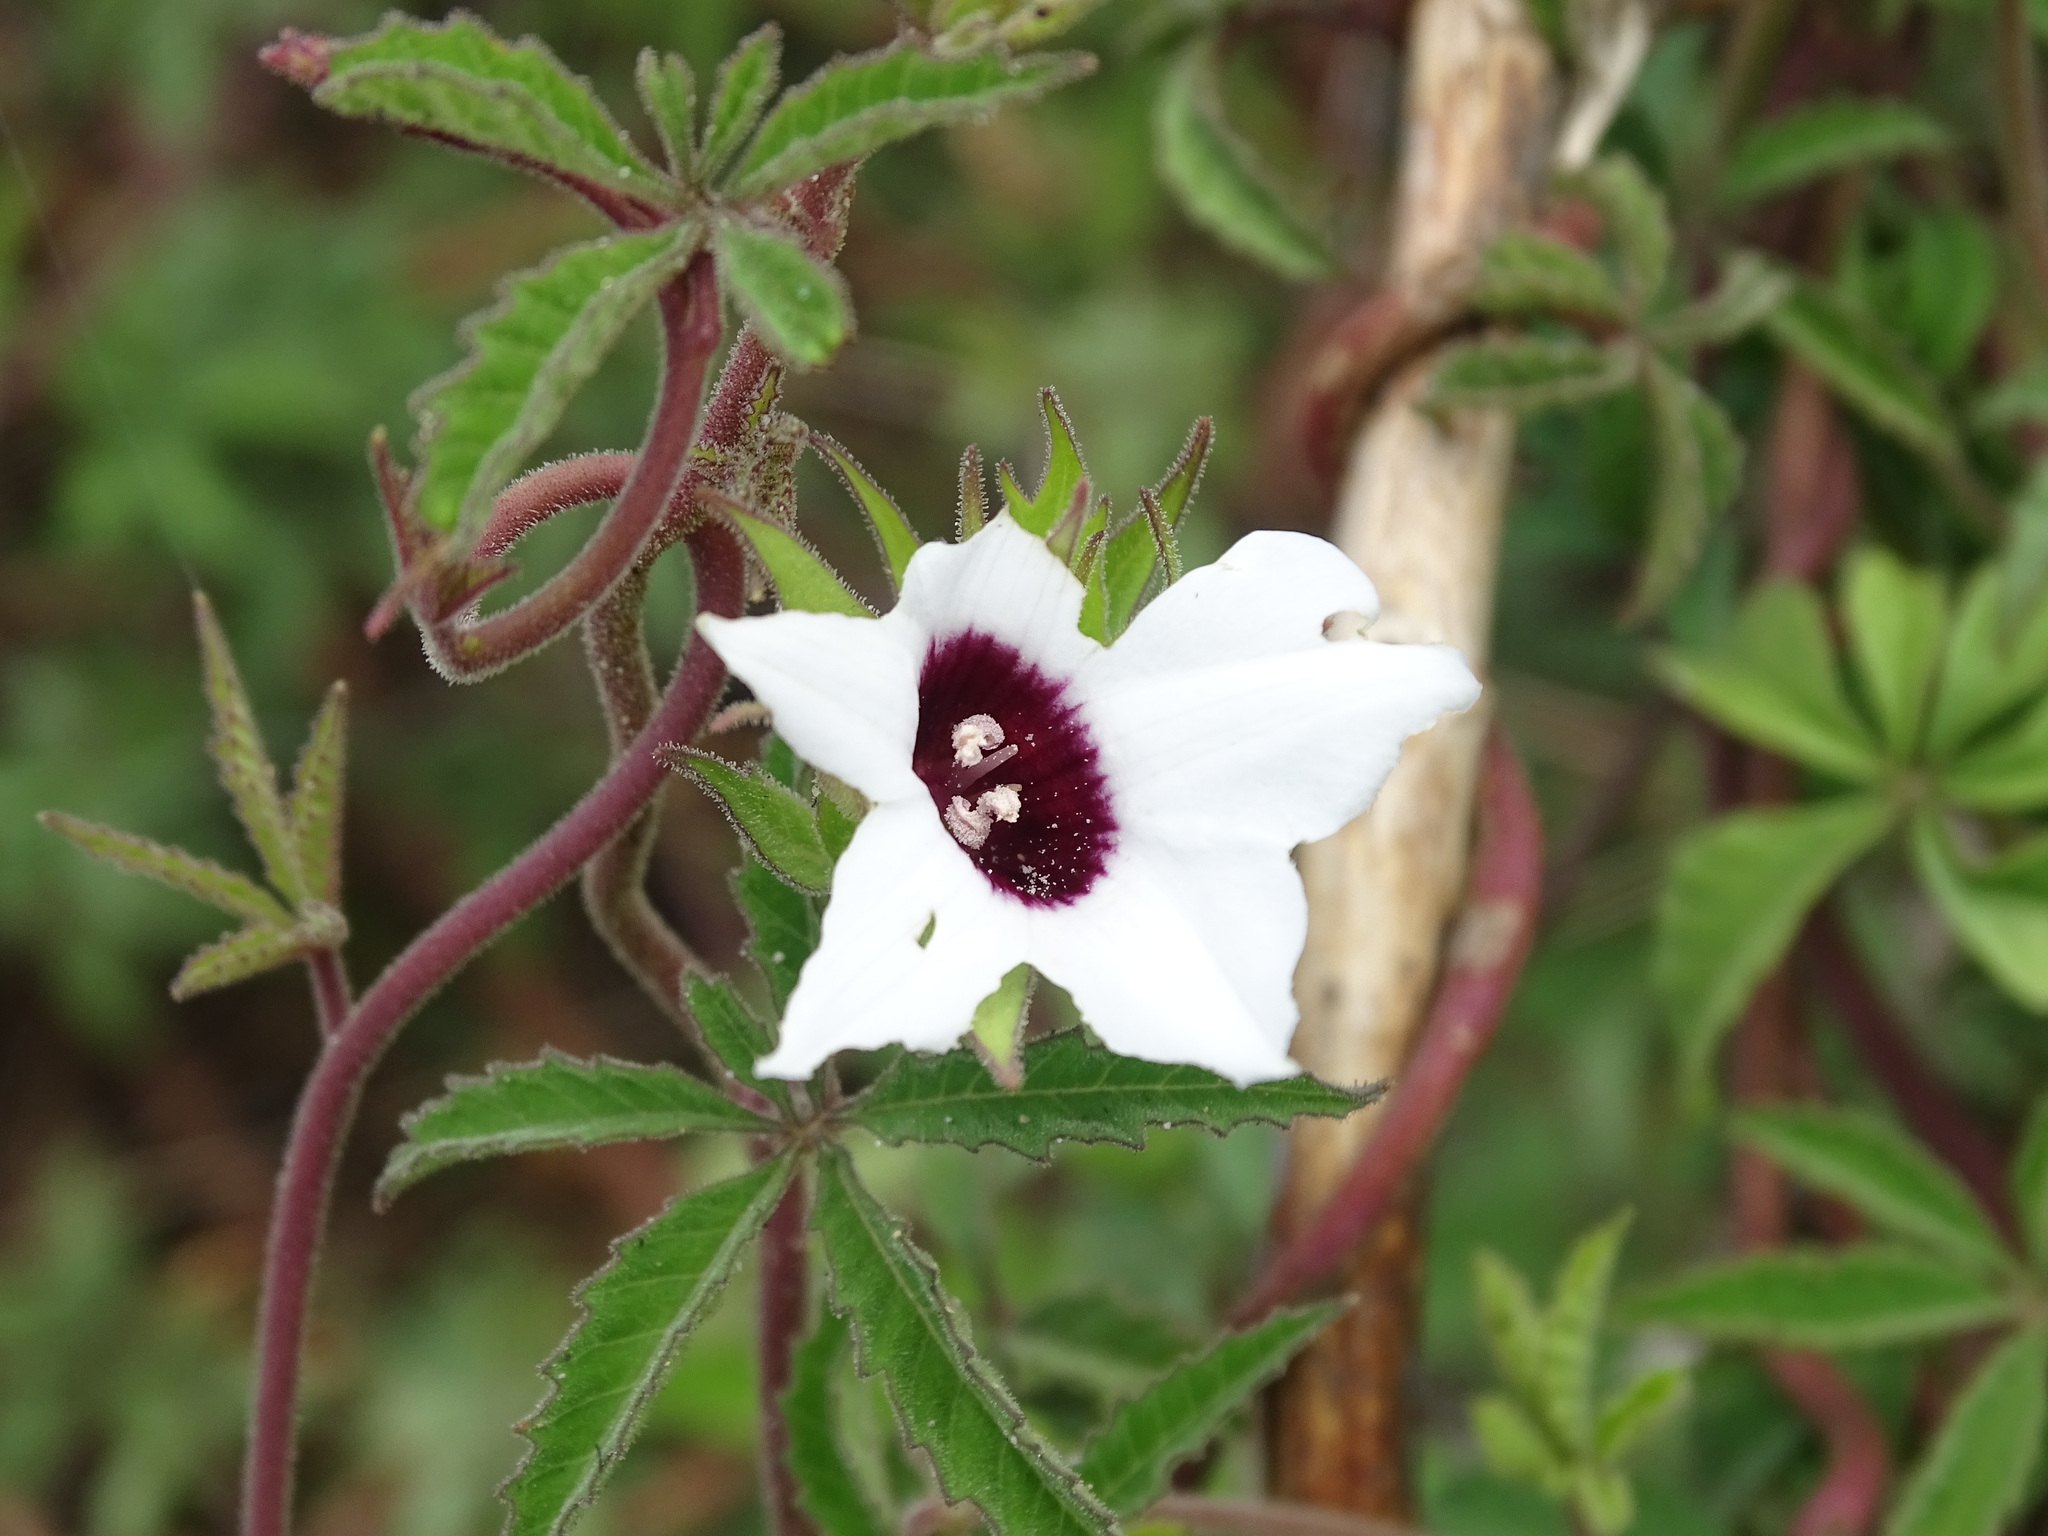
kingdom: Plantae
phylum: Tracheophyta
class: Magnoliopsida
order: Solanales
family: Convolvulaceae
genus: Distimake
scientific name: Distimake lobulibracteatus
